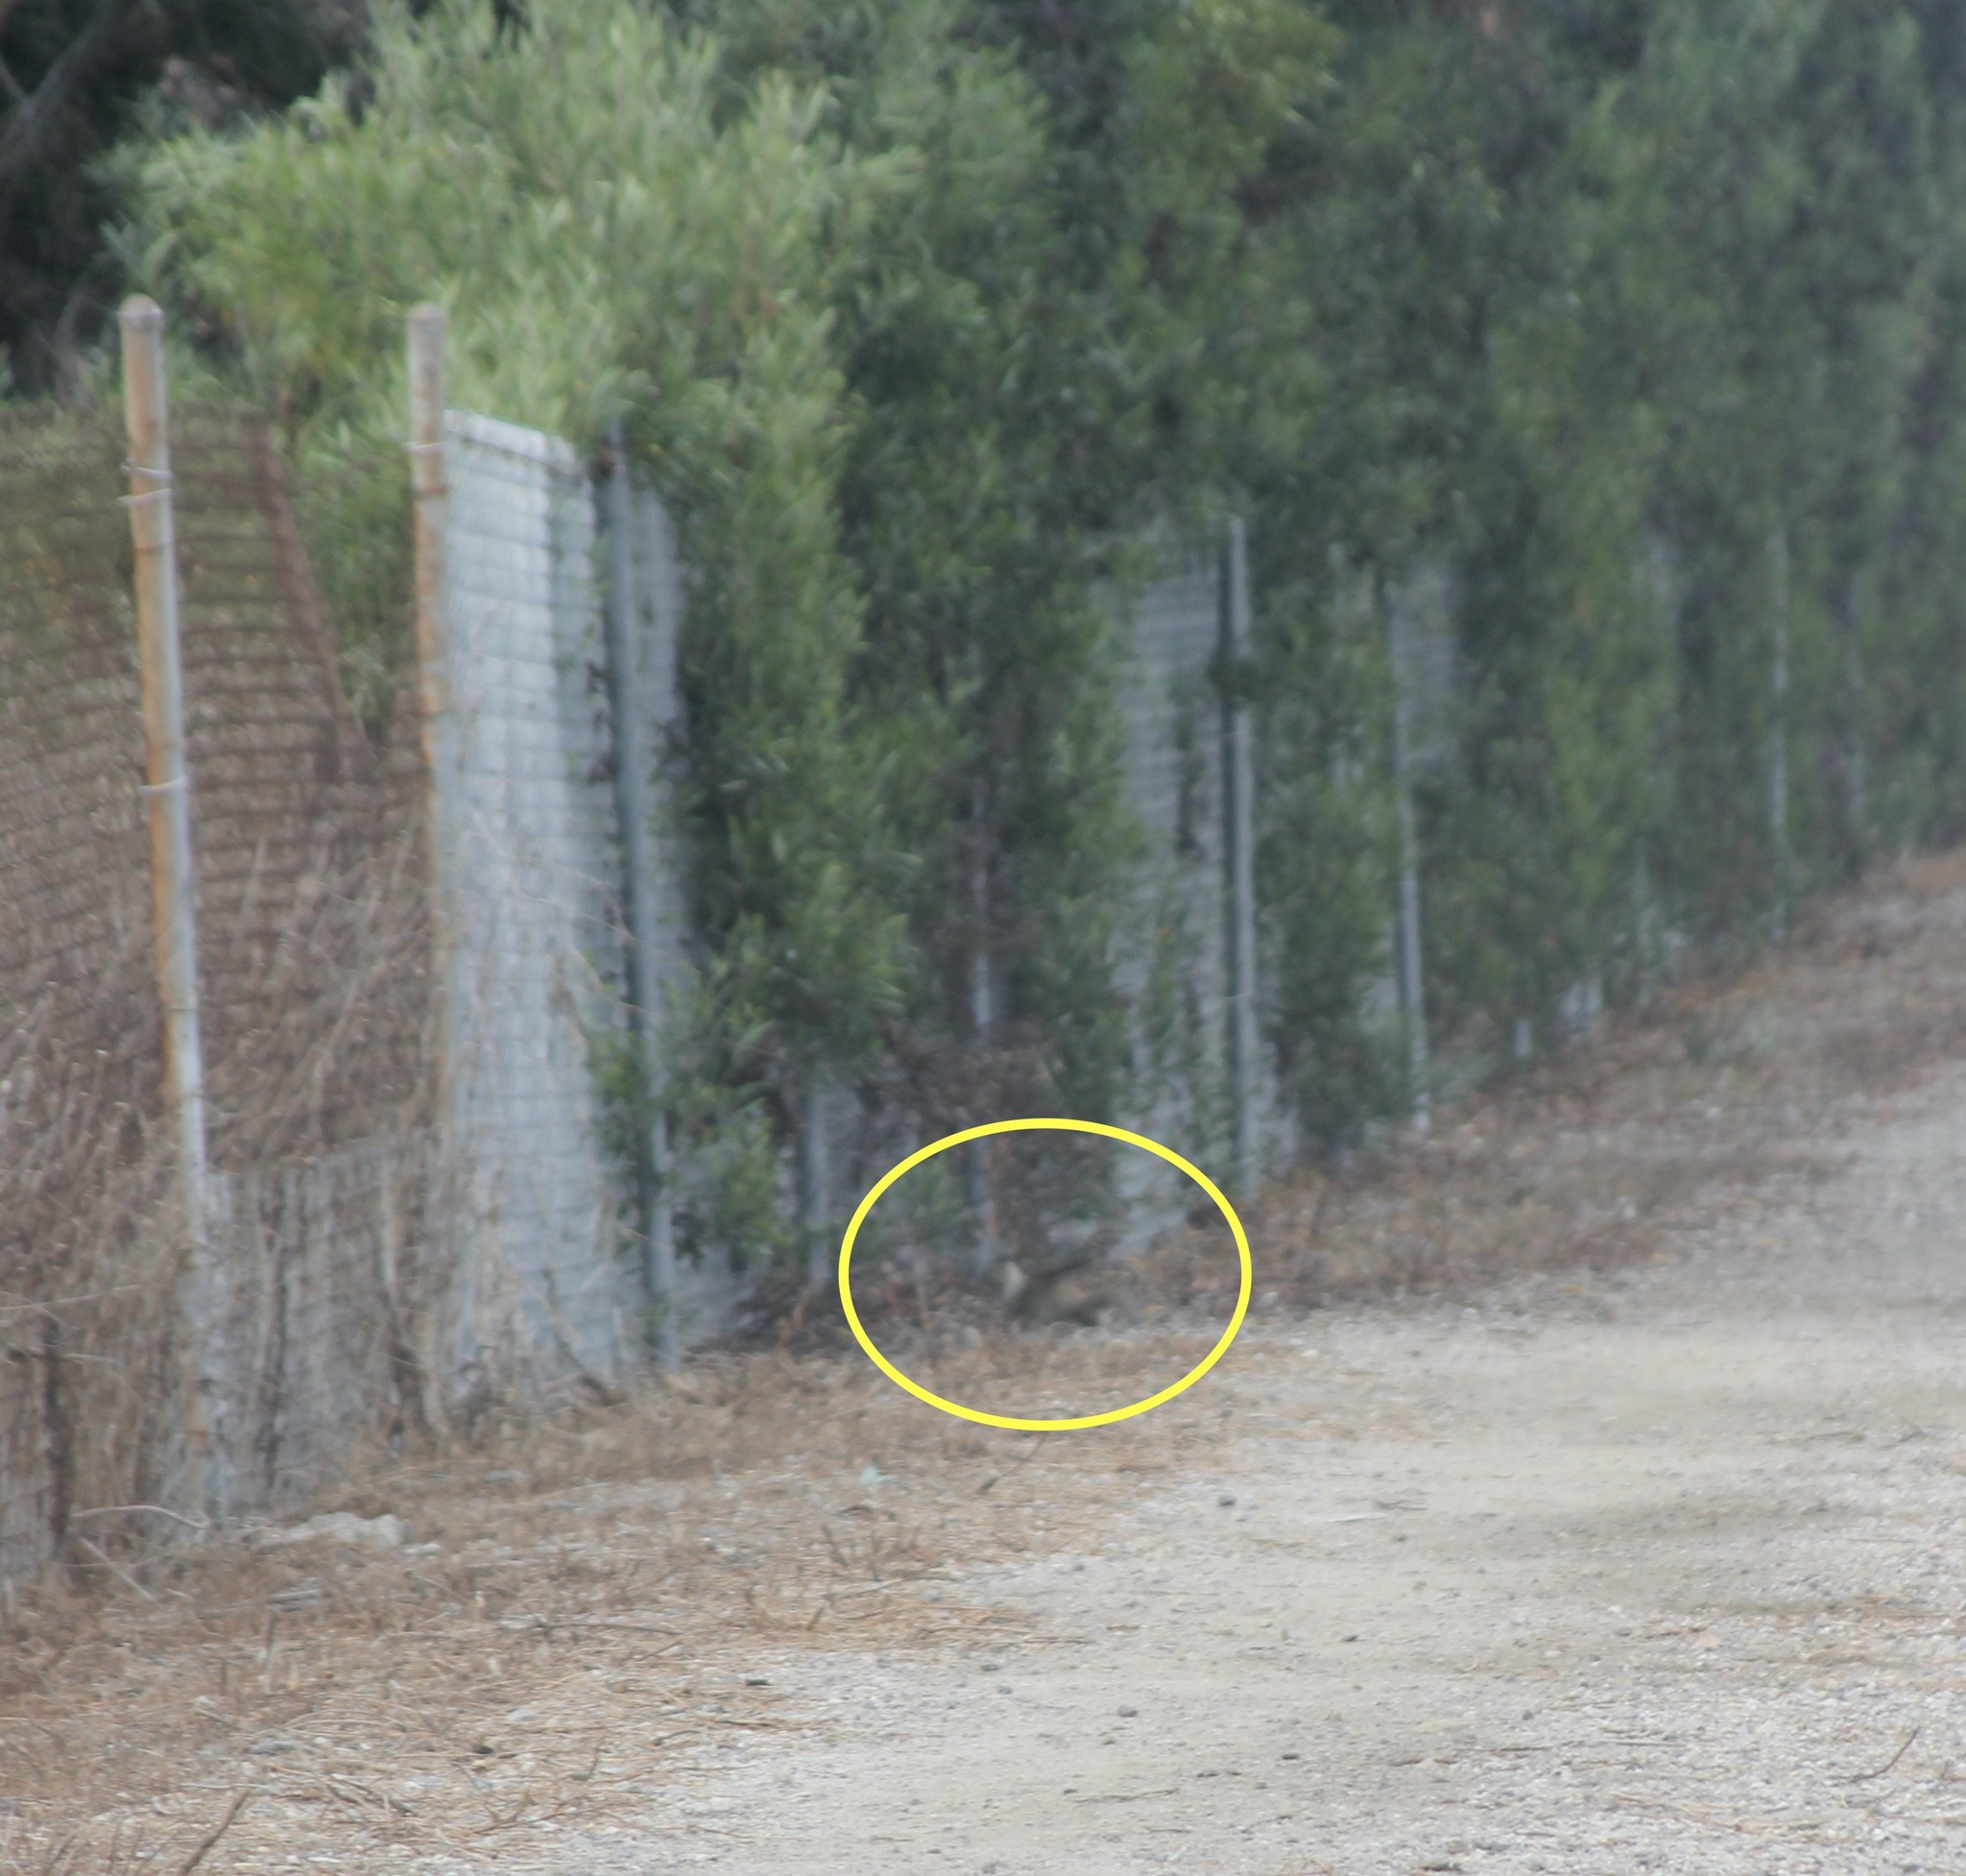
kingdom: Animalia
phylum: Chordata
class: Mammalia
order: Rodentia
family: Sciuridae
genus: Otospermophilus
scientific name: Otospermophilus beecheyi
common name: California ground squirrel
